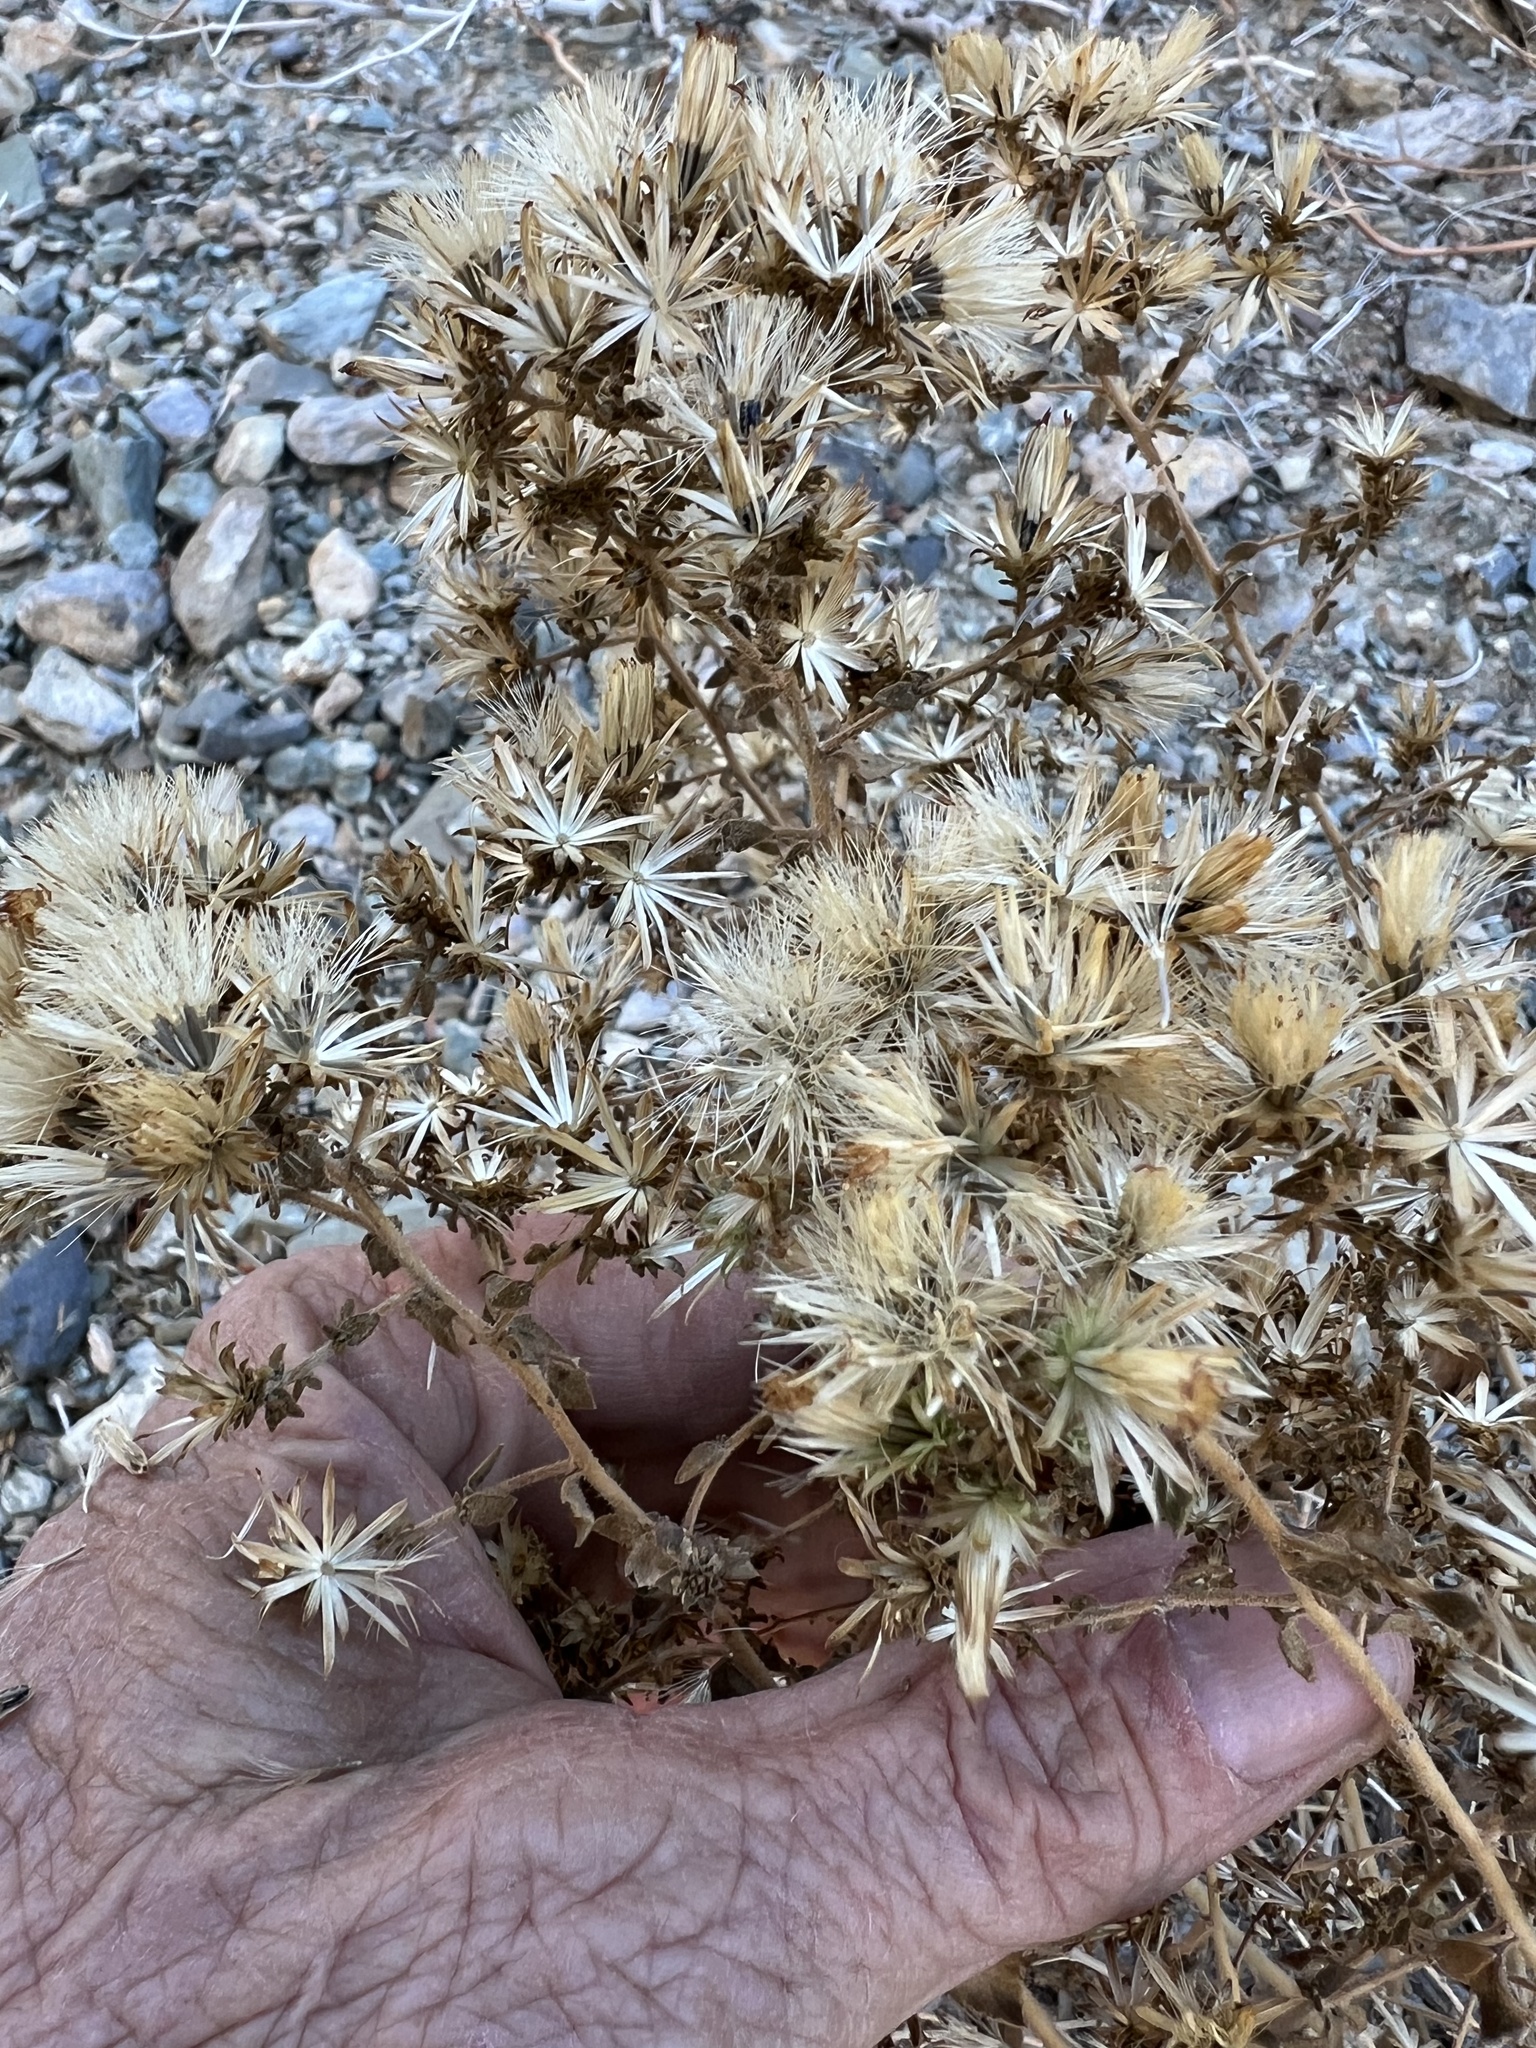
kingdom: Plantae
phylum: Tracheophyta
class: Magnoliopsida
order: Asterales
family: Asteraceae
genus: Brickellia
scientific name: Brickellia microphylla
